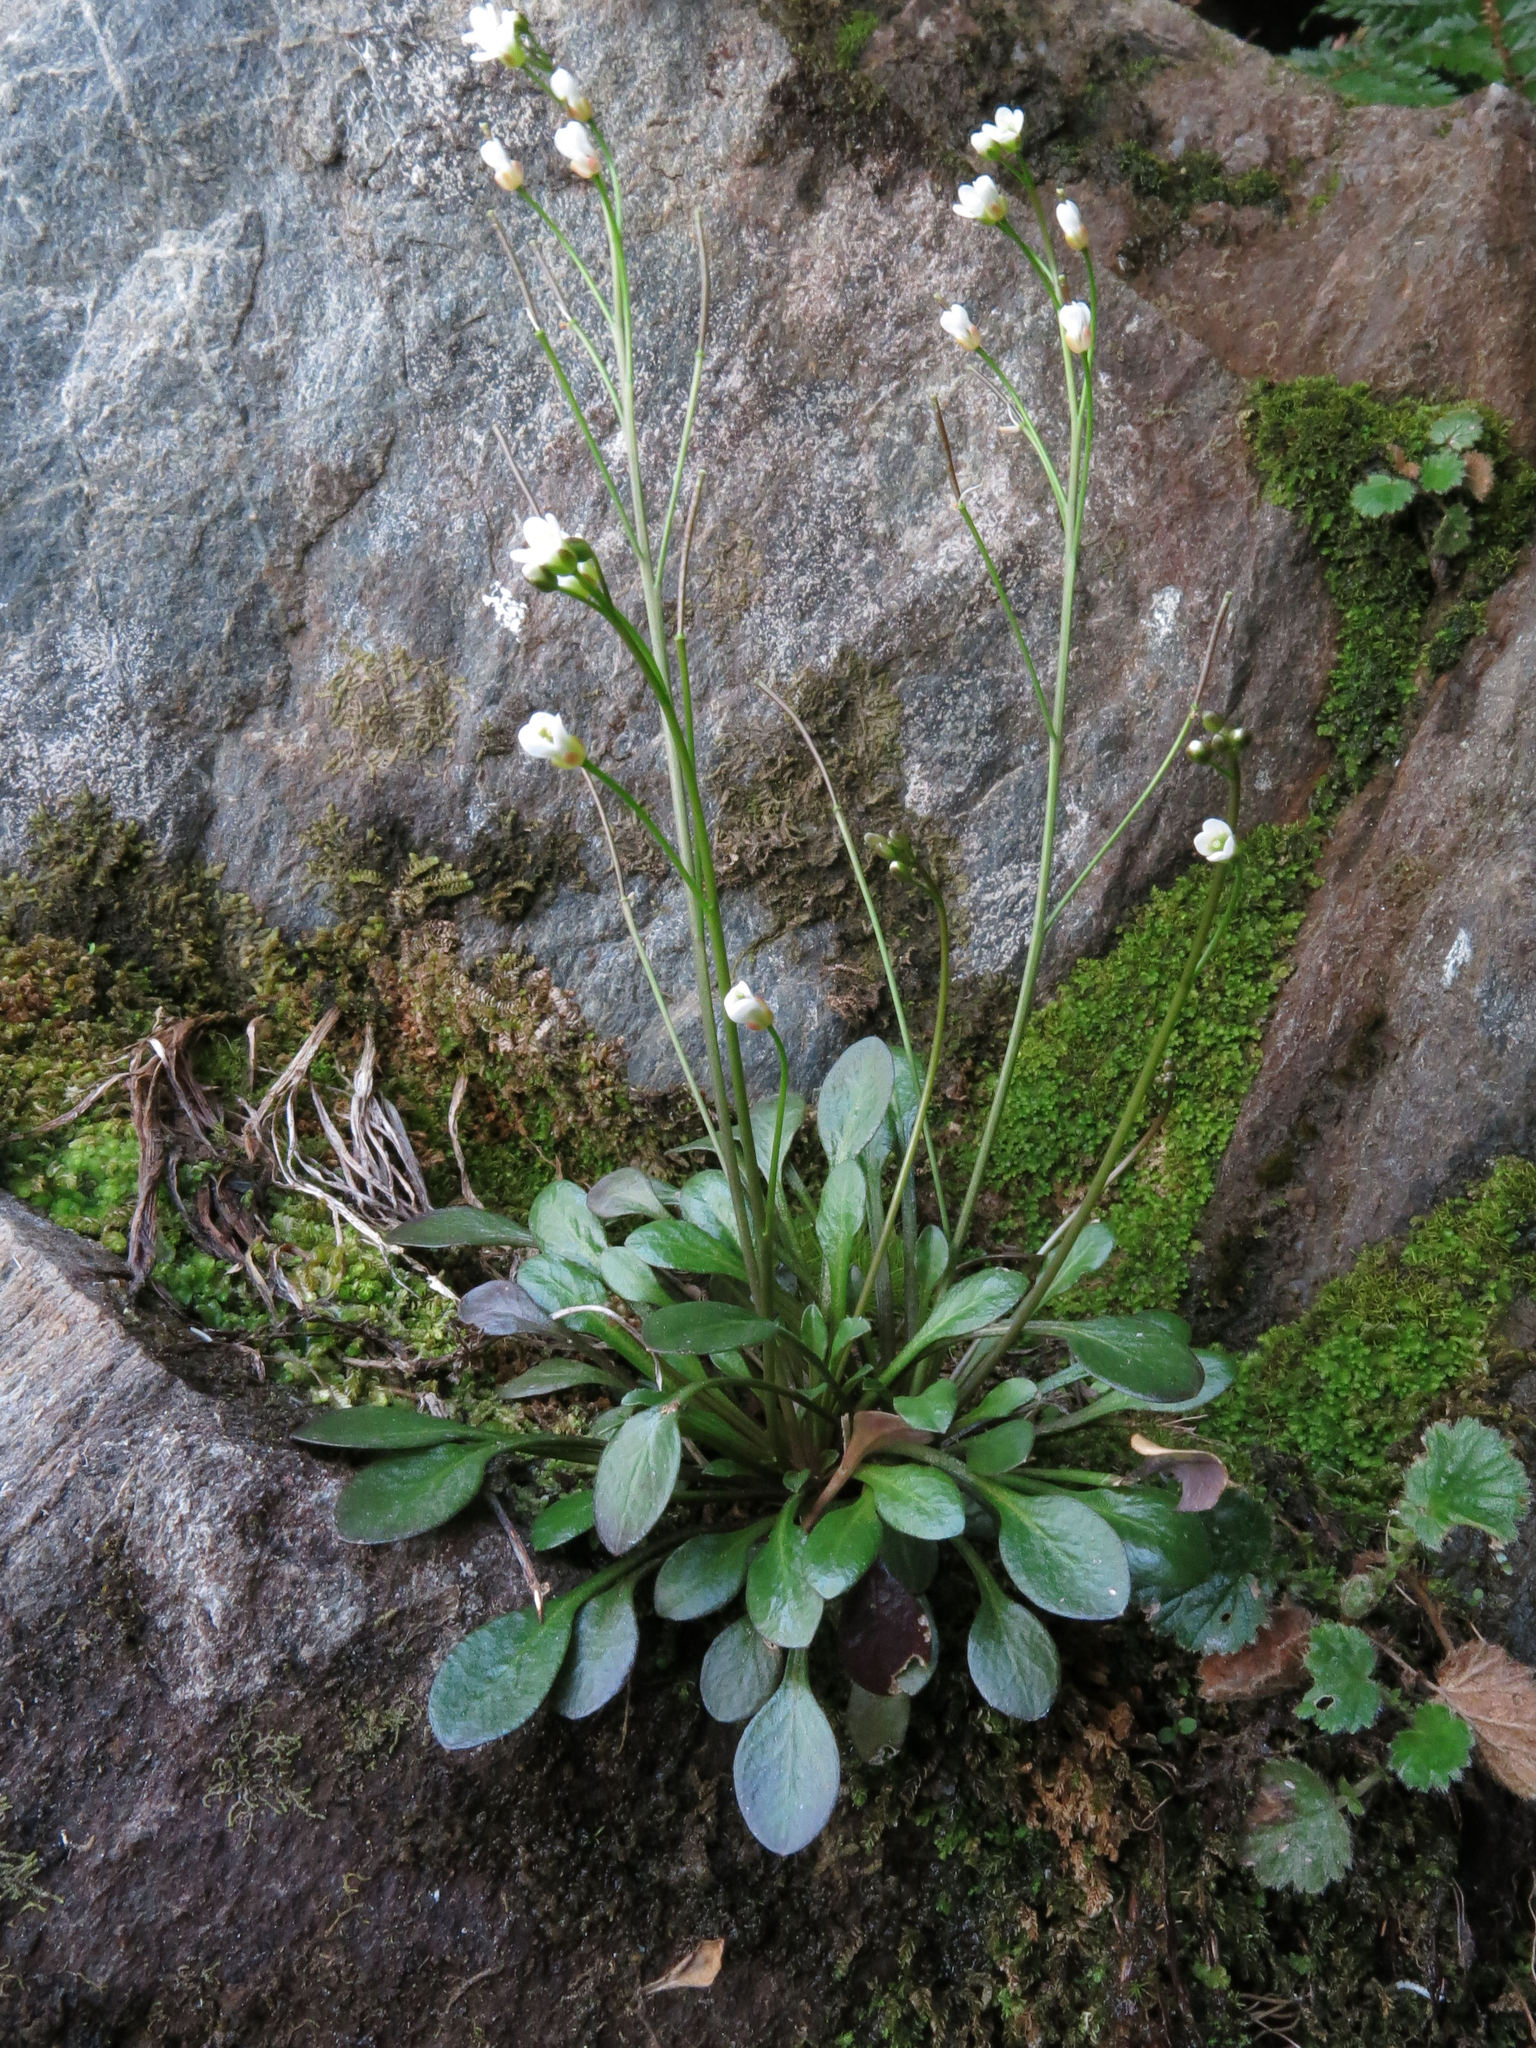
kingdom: Plantae
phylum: Tracheophyta
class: Magnoliopsida
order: Brassicales
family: Brassicaceae
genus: Cardamine
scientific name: Cardamine dimidia
